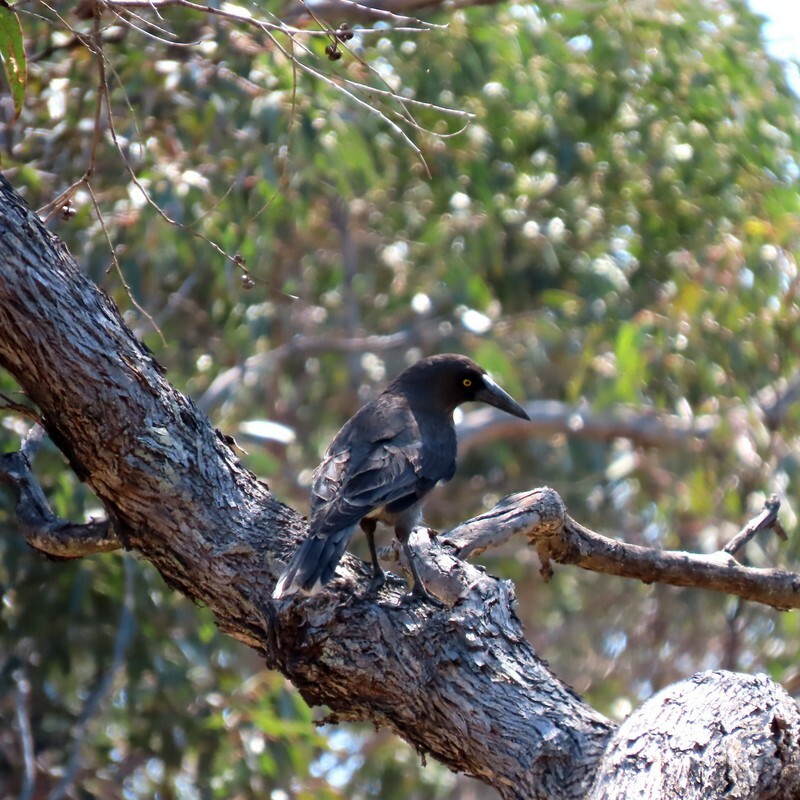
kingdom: Animalia
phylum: Chordata
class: Aves
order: Passeriformes
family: Cracticidae
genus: Strepera
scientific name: Strepera versicolor
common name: Grey currawong
